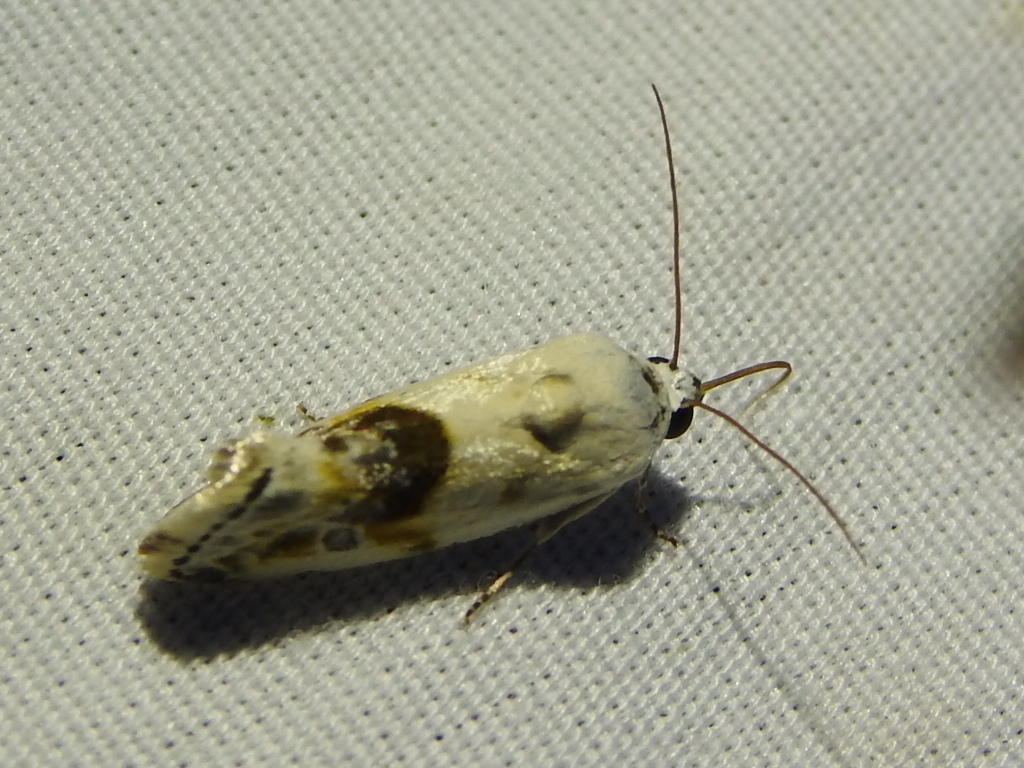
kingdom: Animalia
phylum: Arthropoda
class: Insecta
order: Lepidoptera
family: Noctuidae
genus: Acontia
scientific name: Acontia candefacta
